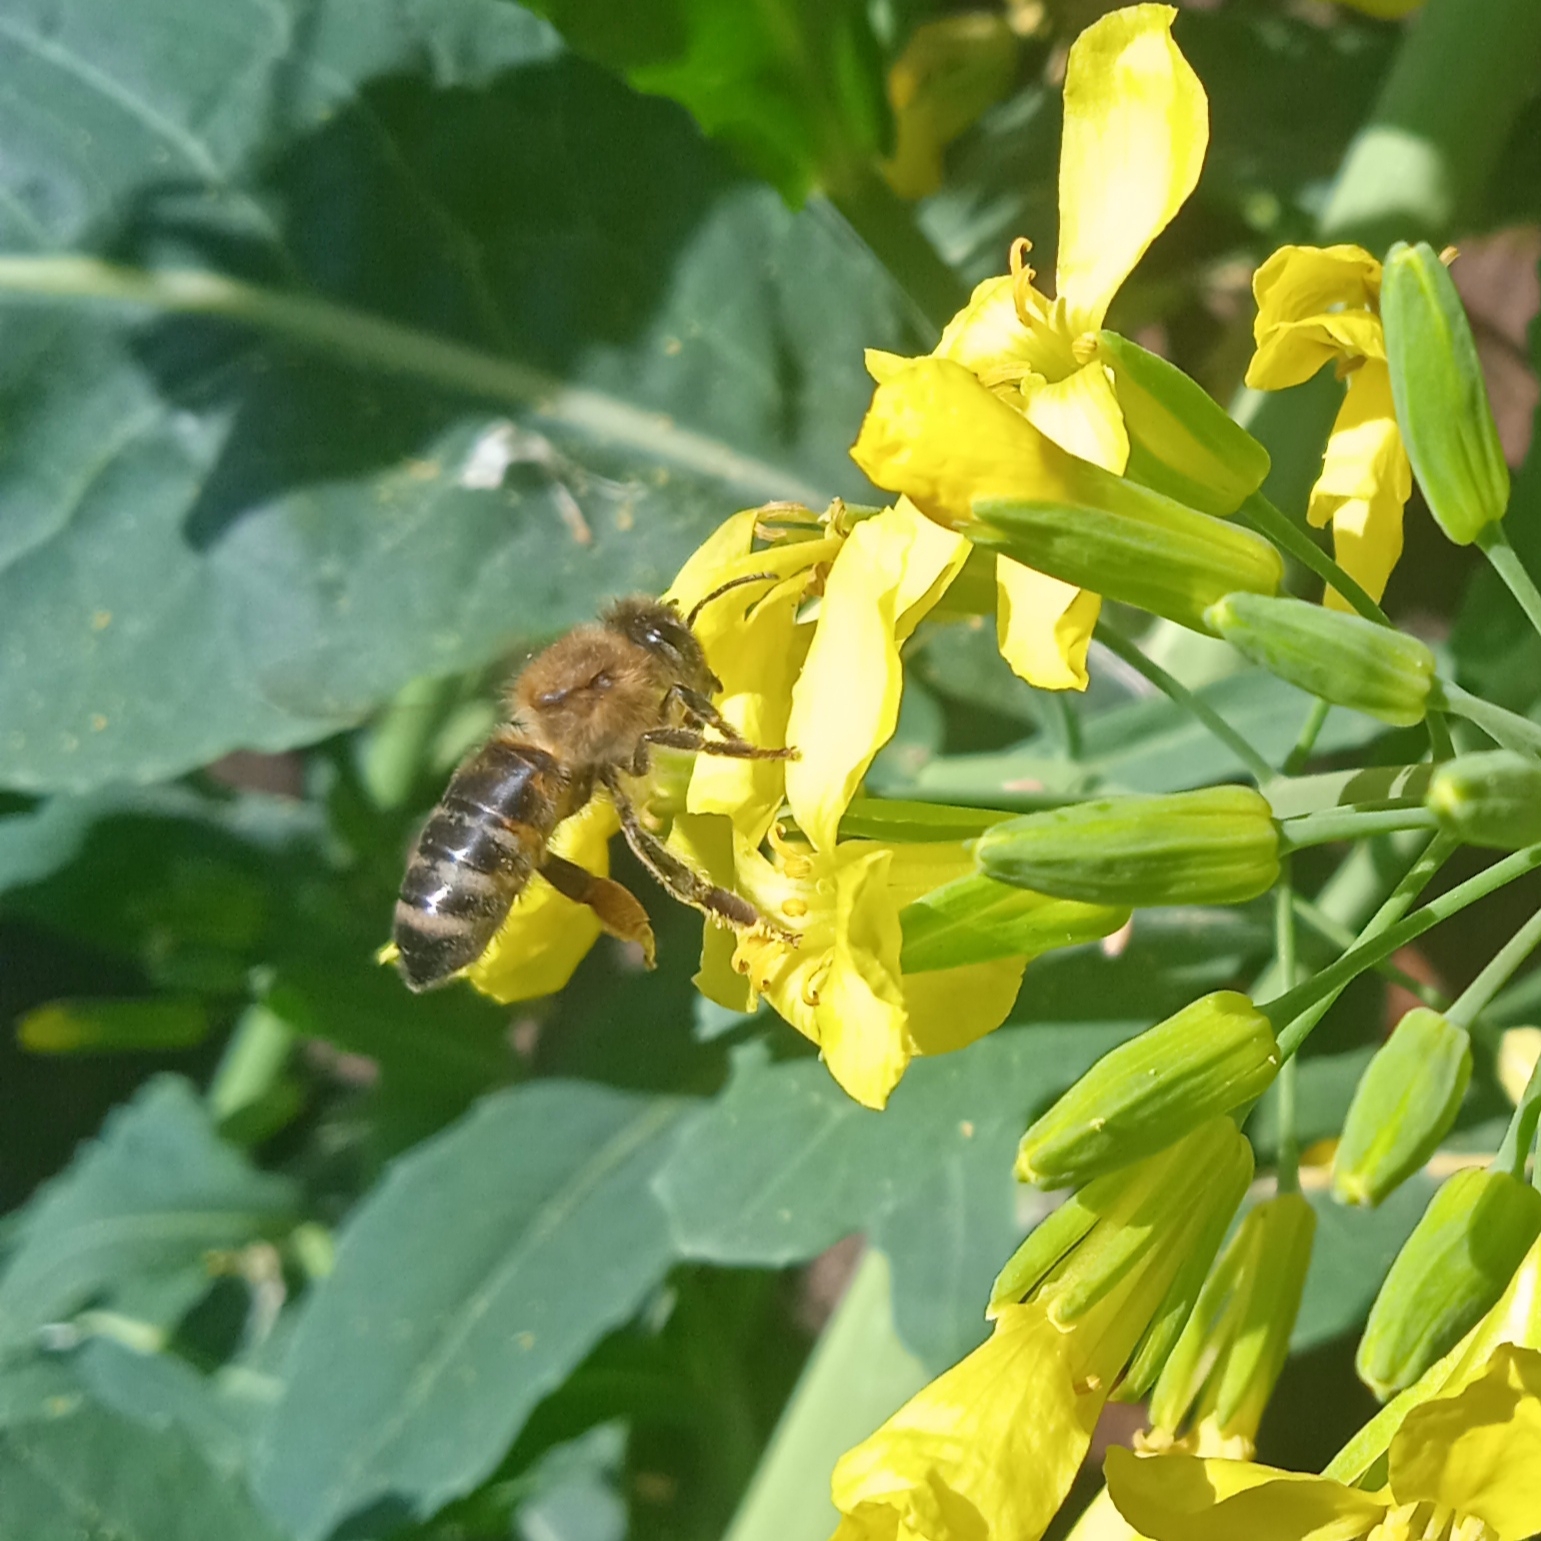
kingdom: Animalia
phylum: Arthropoda
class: Insecta
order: Hymenoptera
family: Apidae
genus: Apis
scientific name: Apis mellifera
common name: Honey bee
